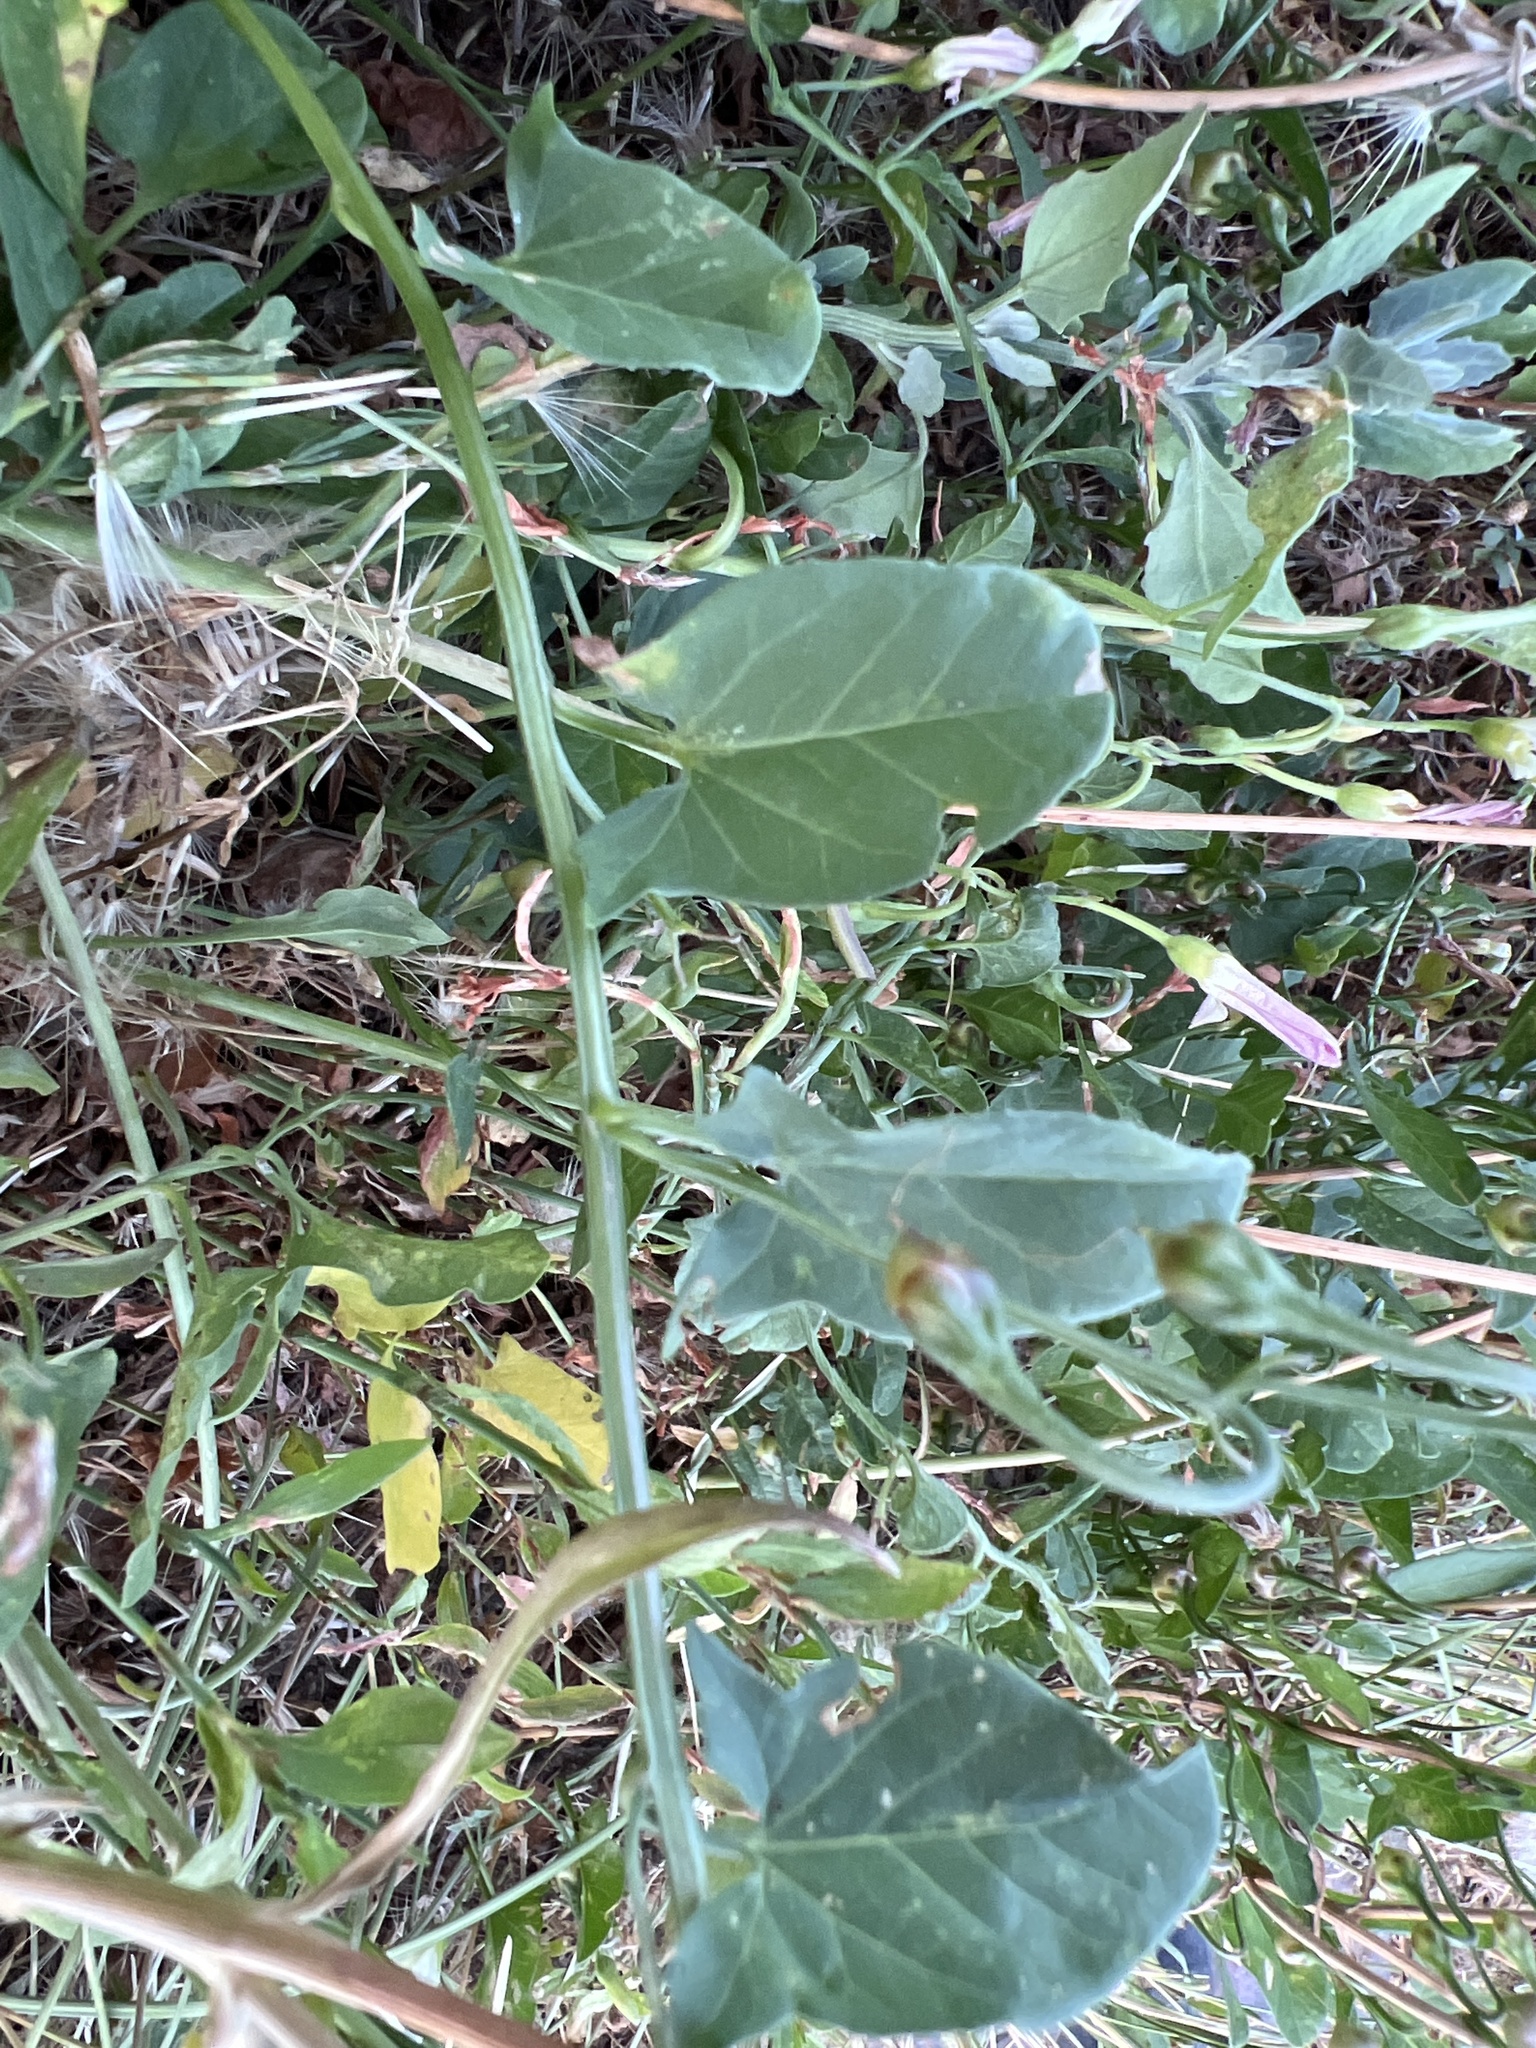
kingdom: Plantae
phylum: Tracheophyta
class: Magnoliopsida
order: Solanales
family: Convolvulaceae
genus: Convolvulus
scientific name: Convolvulus arvensis
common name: Field bindweed
